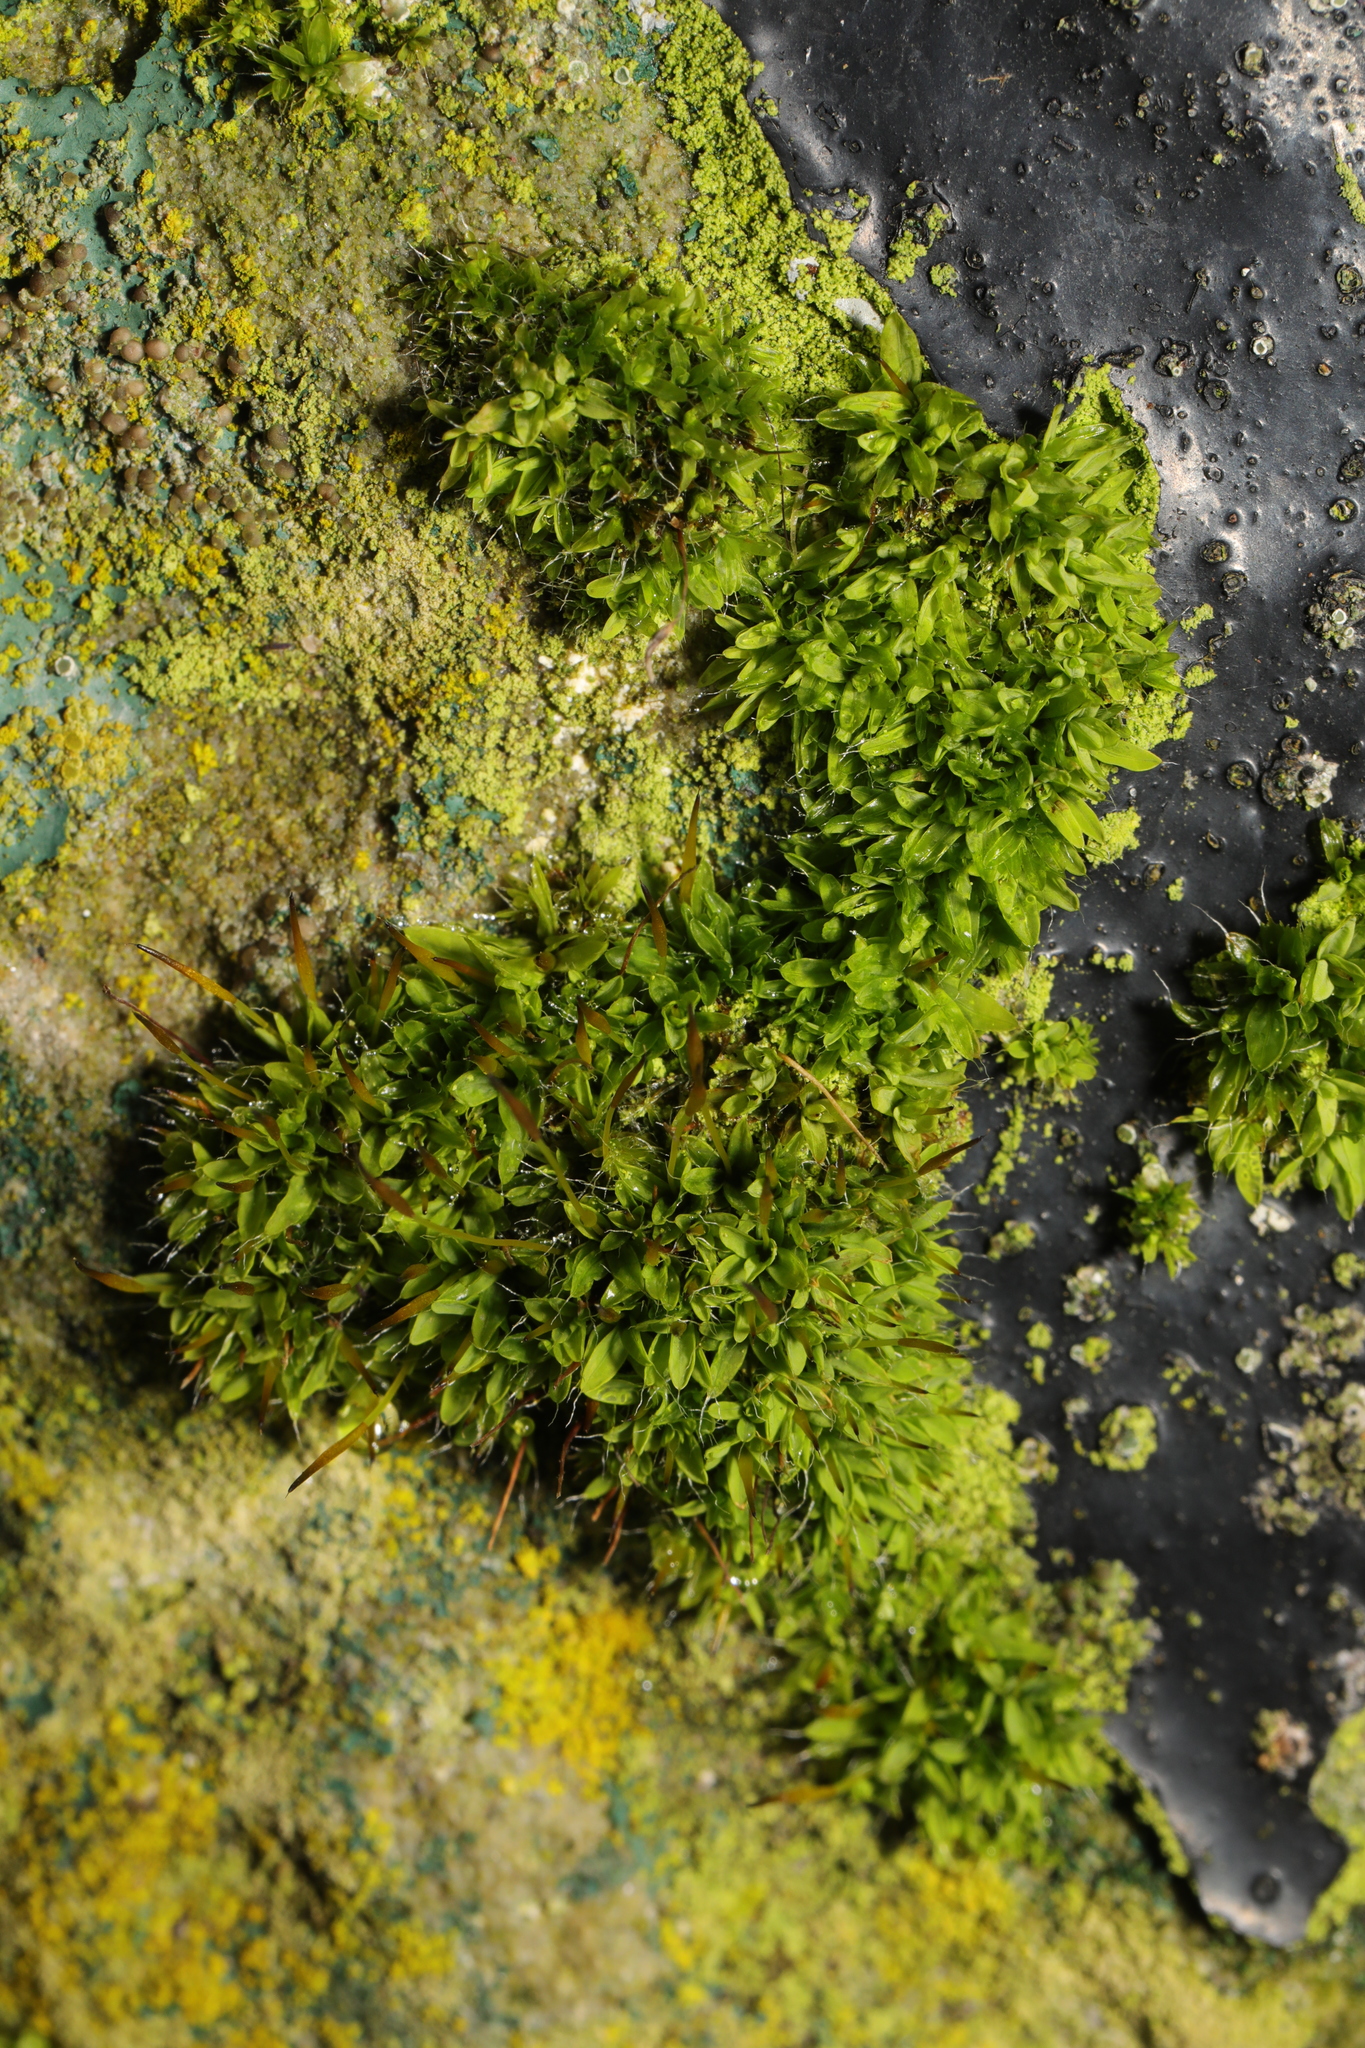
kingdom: Plantae
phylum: Bryophyta
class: Bryopsida
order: Pottiales
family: Pottiaceae
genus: Tortula
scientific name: Tortula muralis
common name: Wall screw-moss
